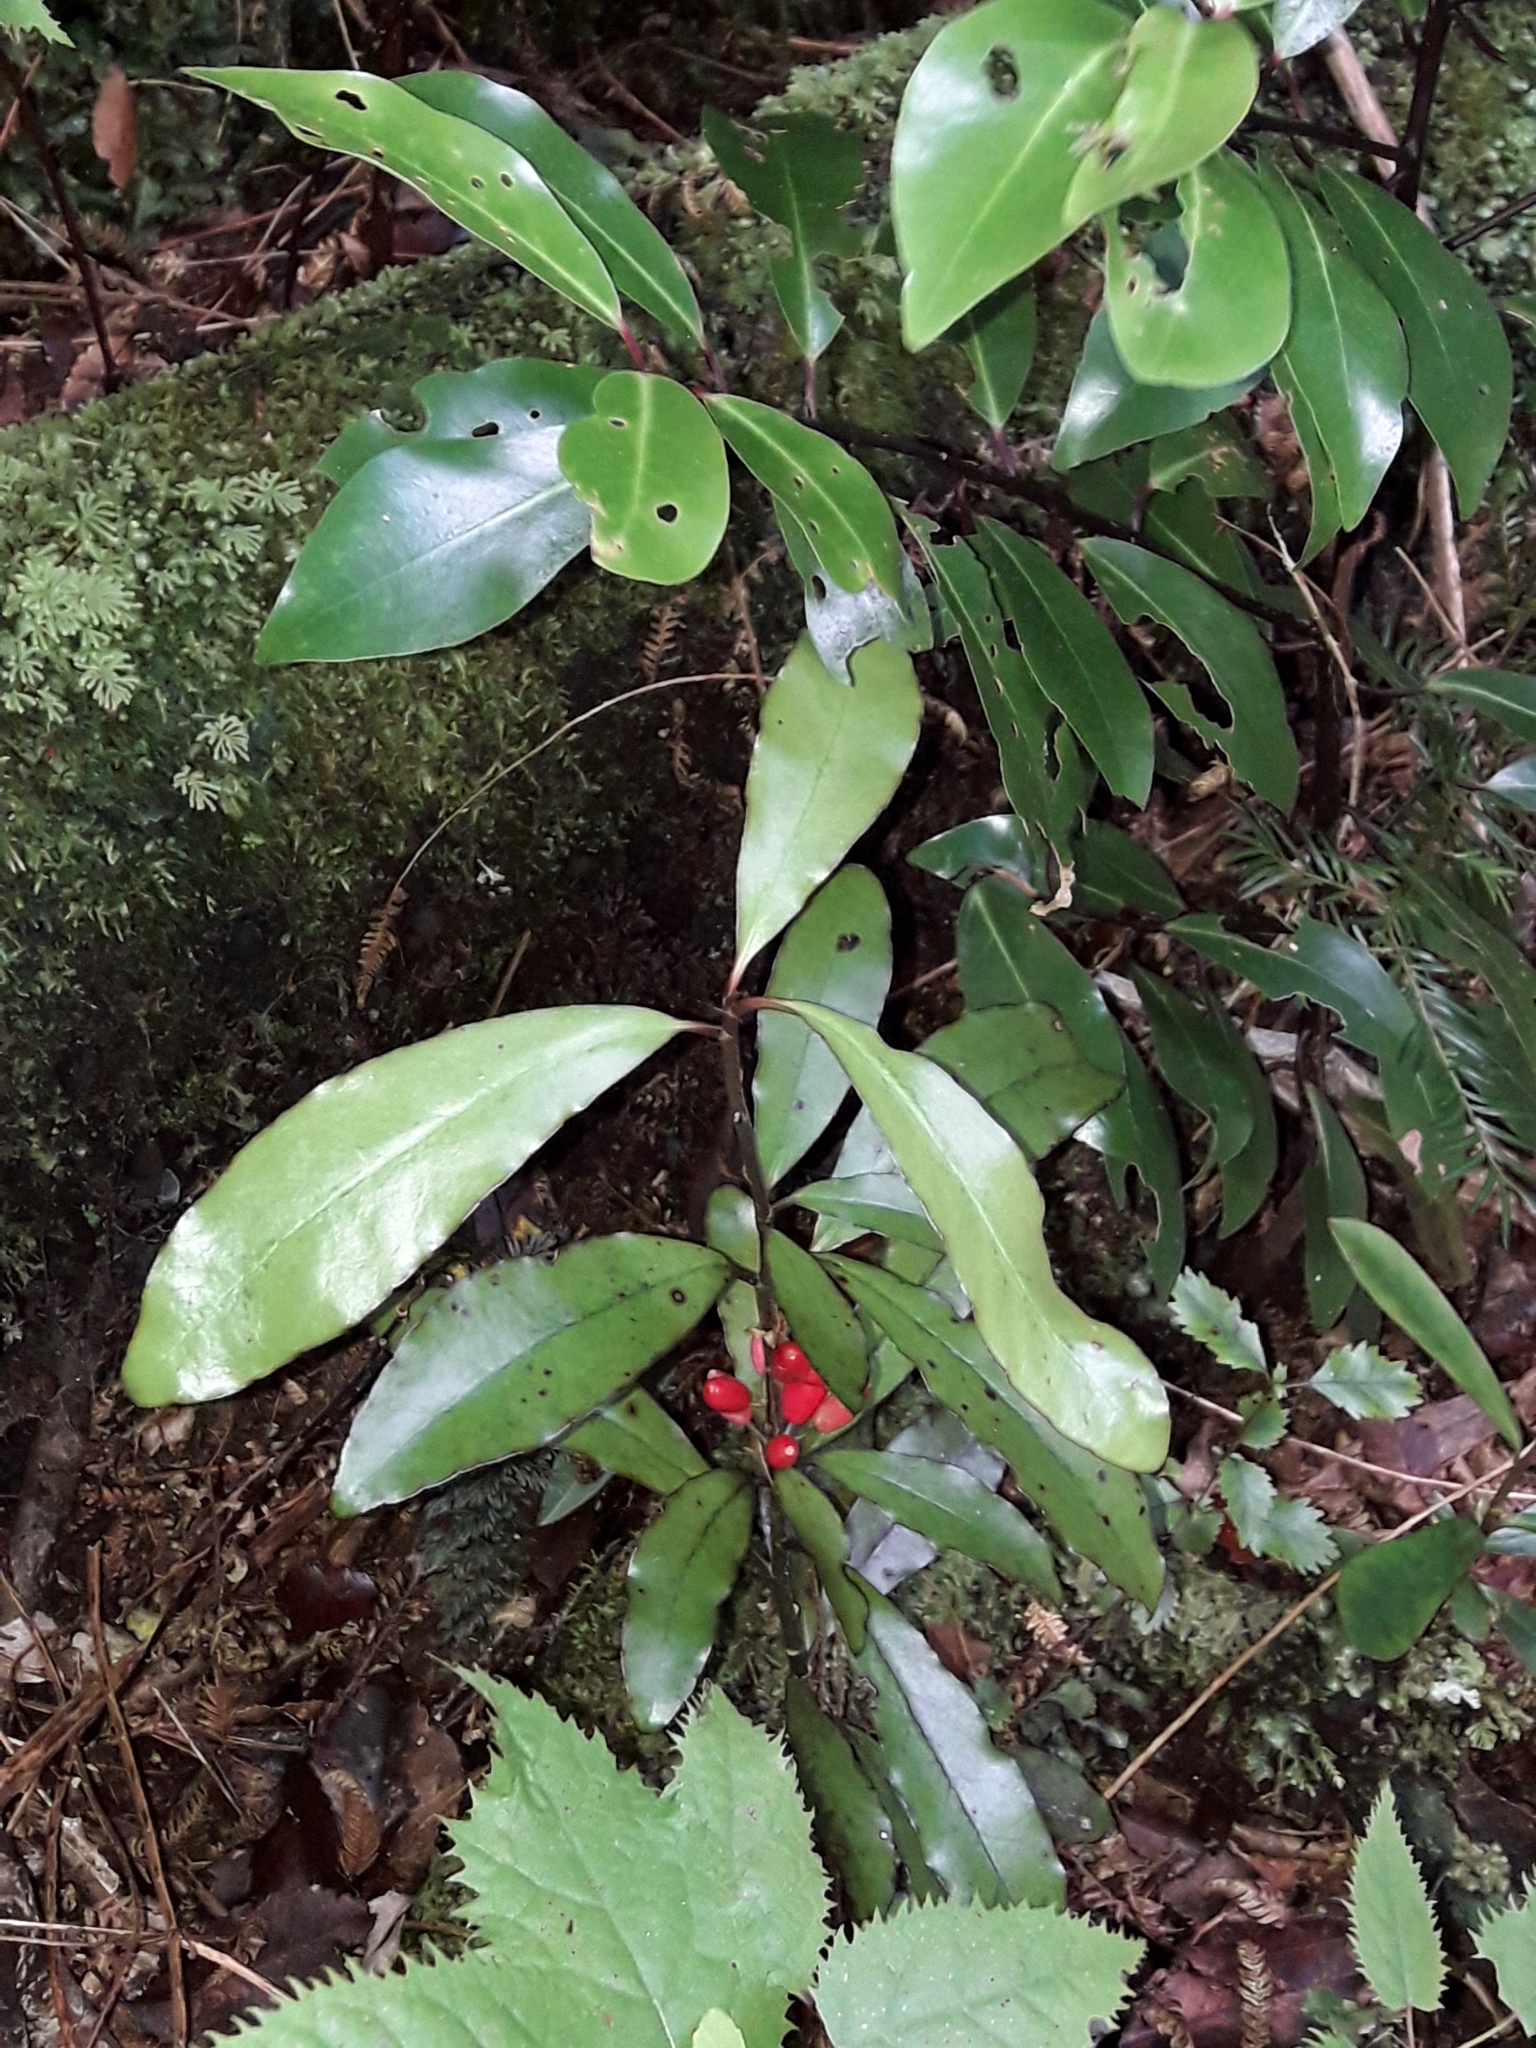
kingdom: Plantae
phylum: Tracheophyta
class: Magnoliopsida
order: Asterales
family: Alseuosmiaceae
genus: Alseuosmia
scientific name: Alseuosmia pusilla
